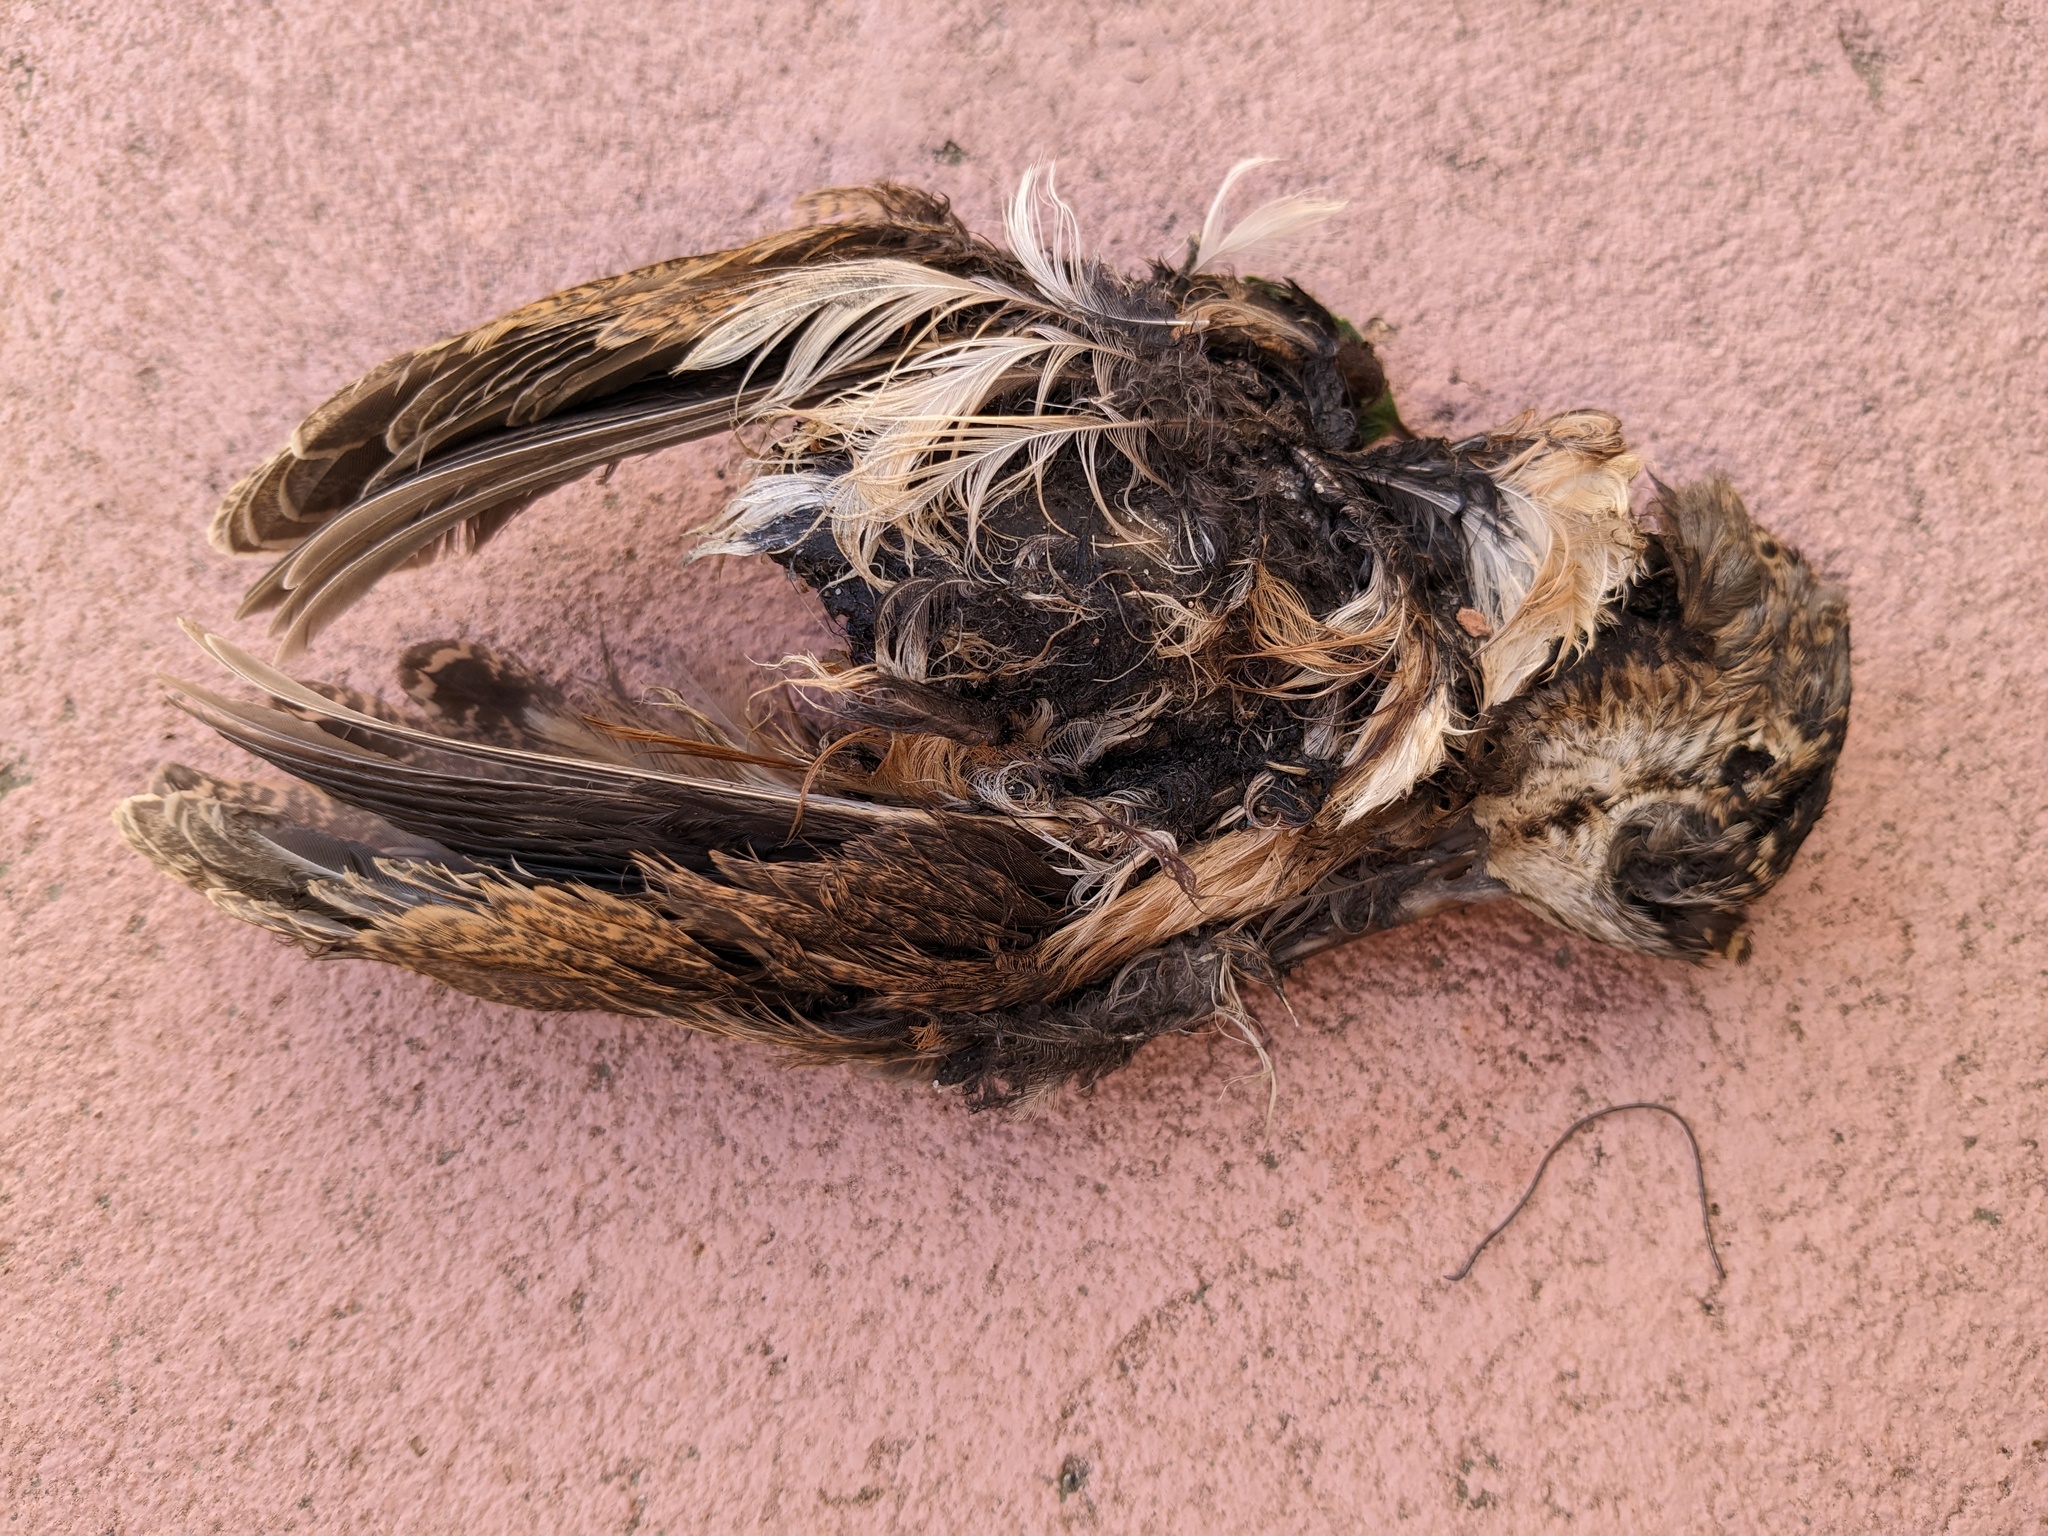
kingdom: Animalia
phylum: Chordata
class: Aves
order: Charadriiformes
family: Scolopacidae
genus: Scolopax
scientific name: Scolopax minor
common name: American woodcock
